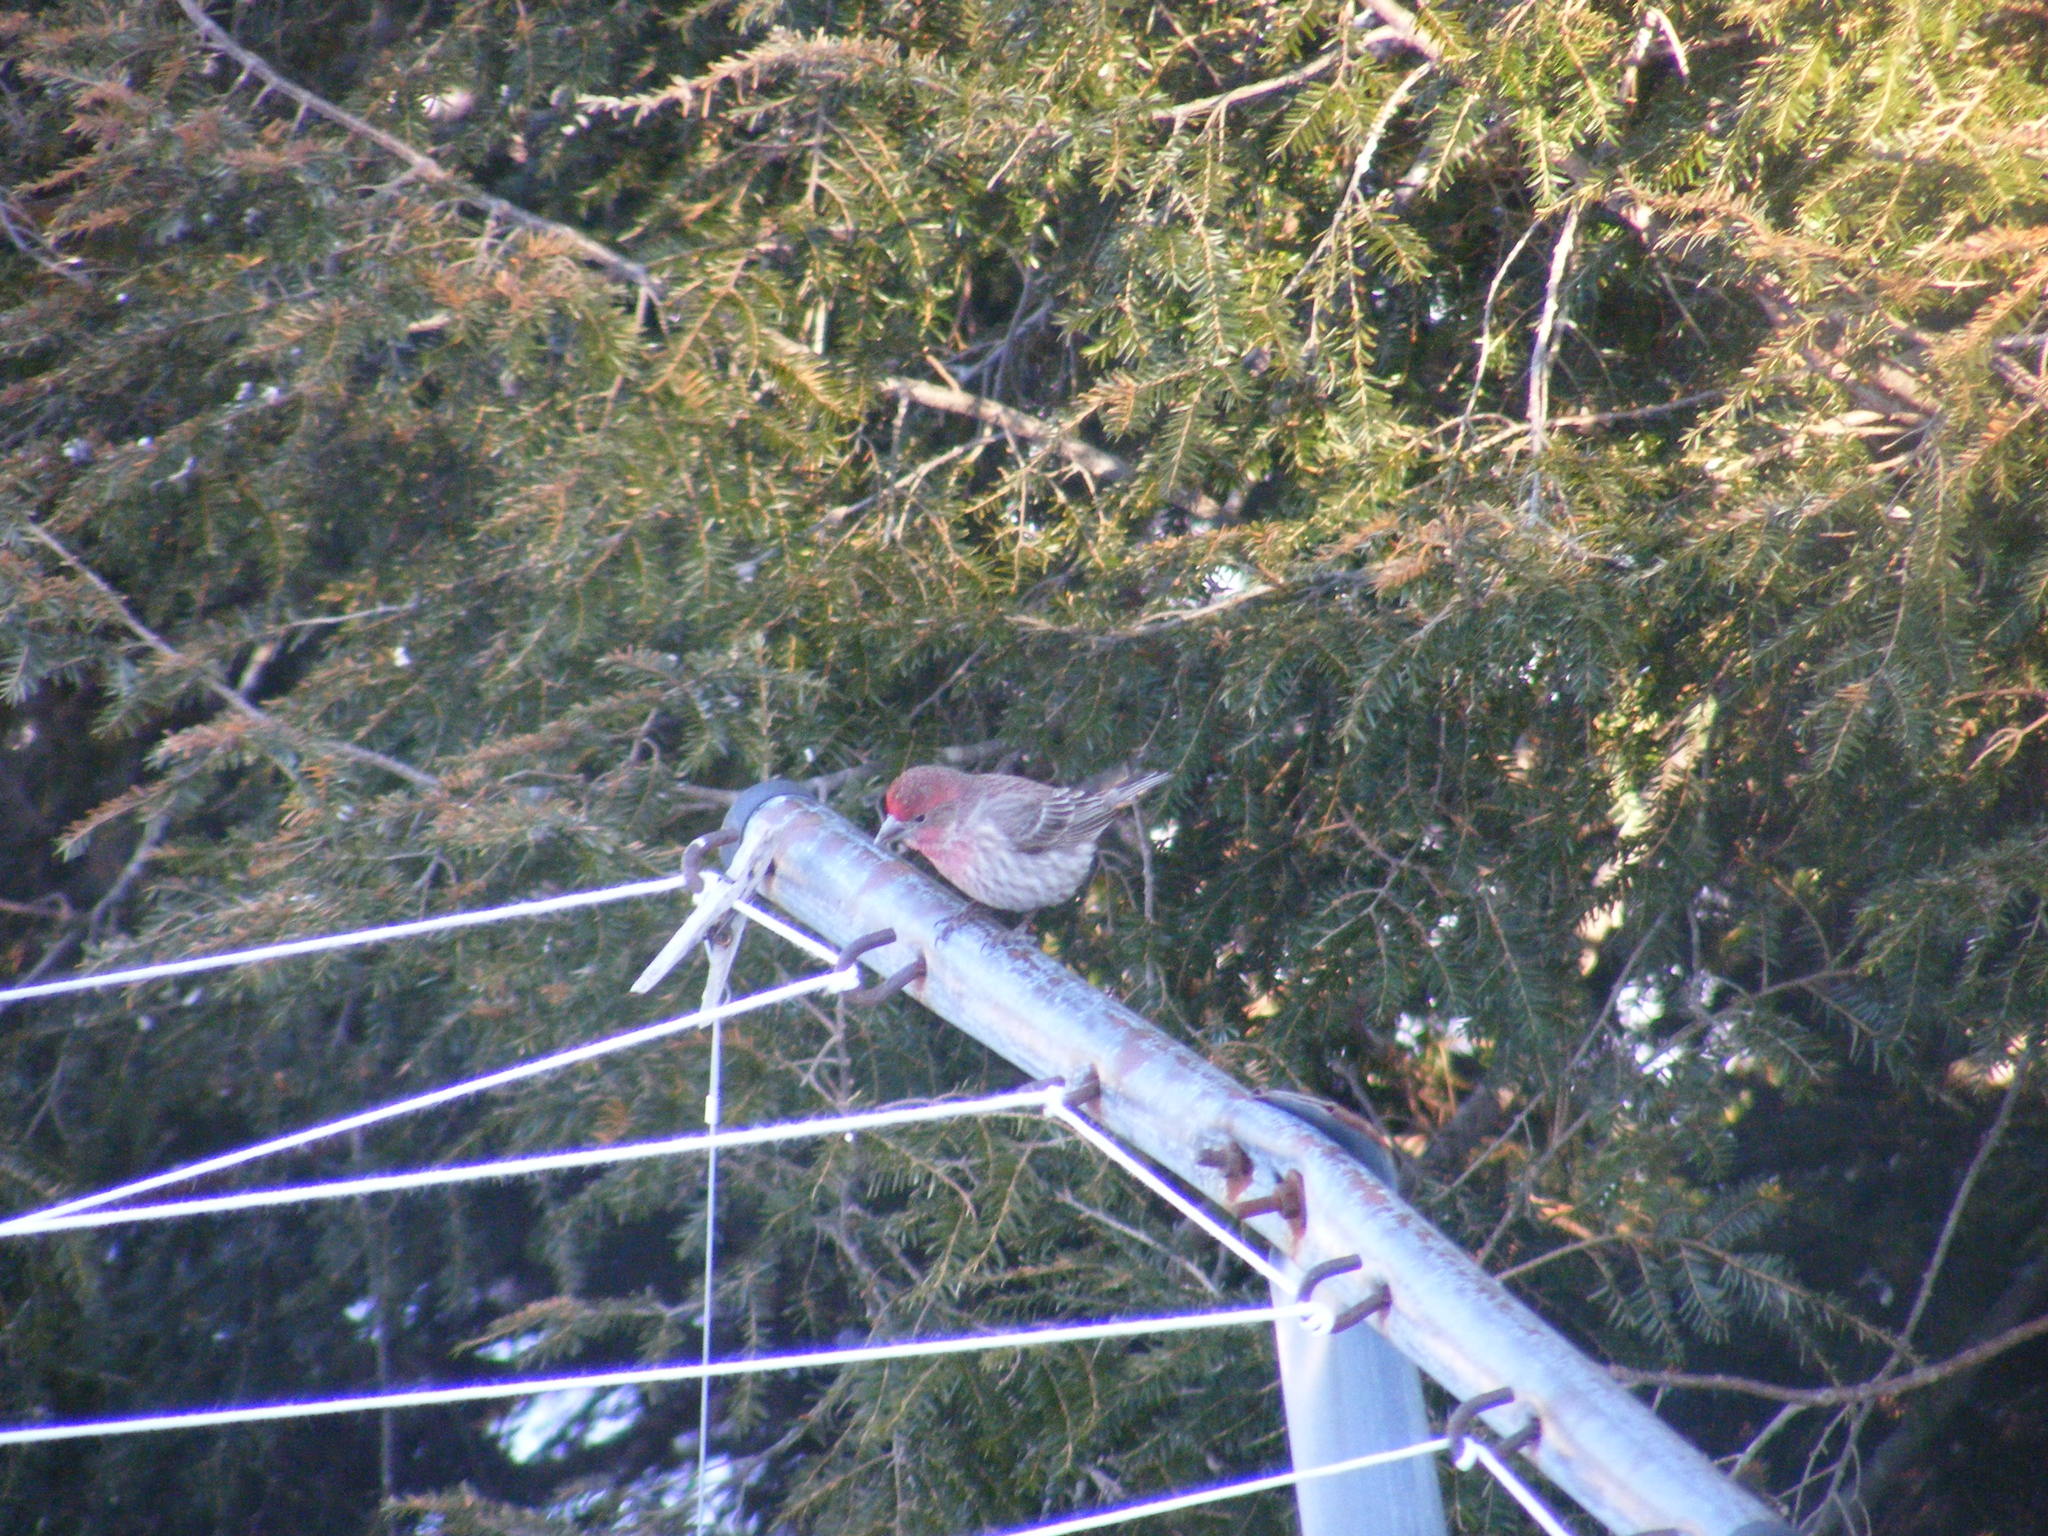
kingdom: Animalia
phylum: Chordata
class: Aves
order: Passeriformes
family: Fringillidae
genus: Haemorhous
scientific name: Haemorhous mexicanus
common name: House finch
